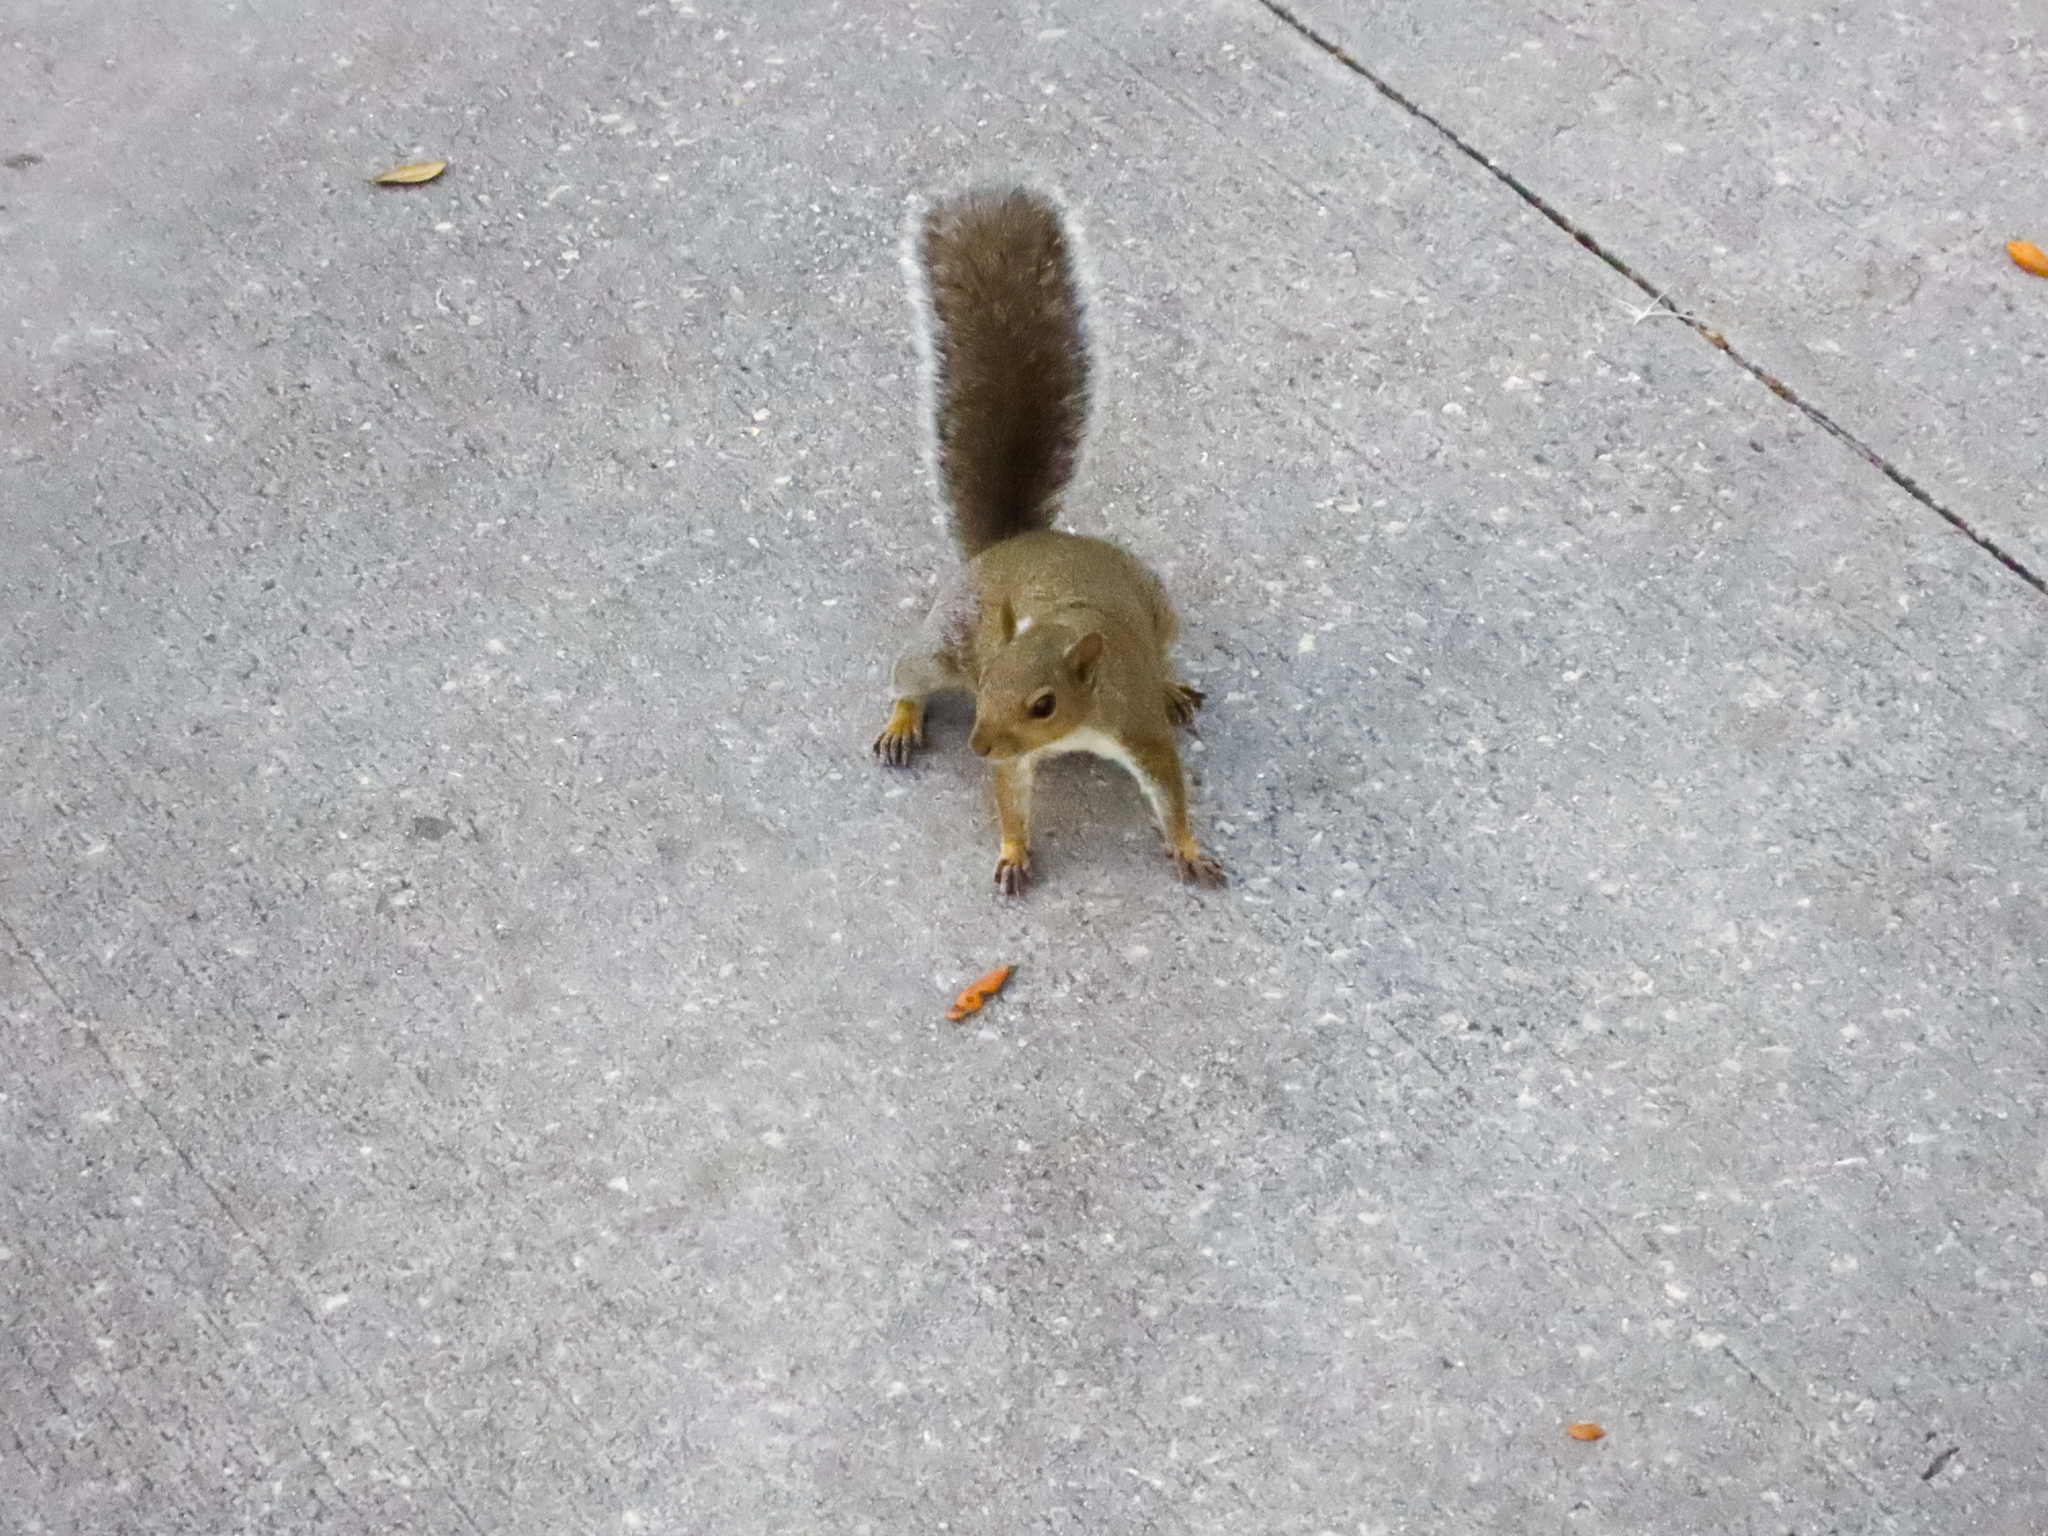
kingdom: Animalia
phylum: Chordata
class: Mammalia
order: Rodentia
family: Sciuridae
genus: Sciurus
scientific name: Sciurus carolinensis
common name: Eastern gray squirrel
